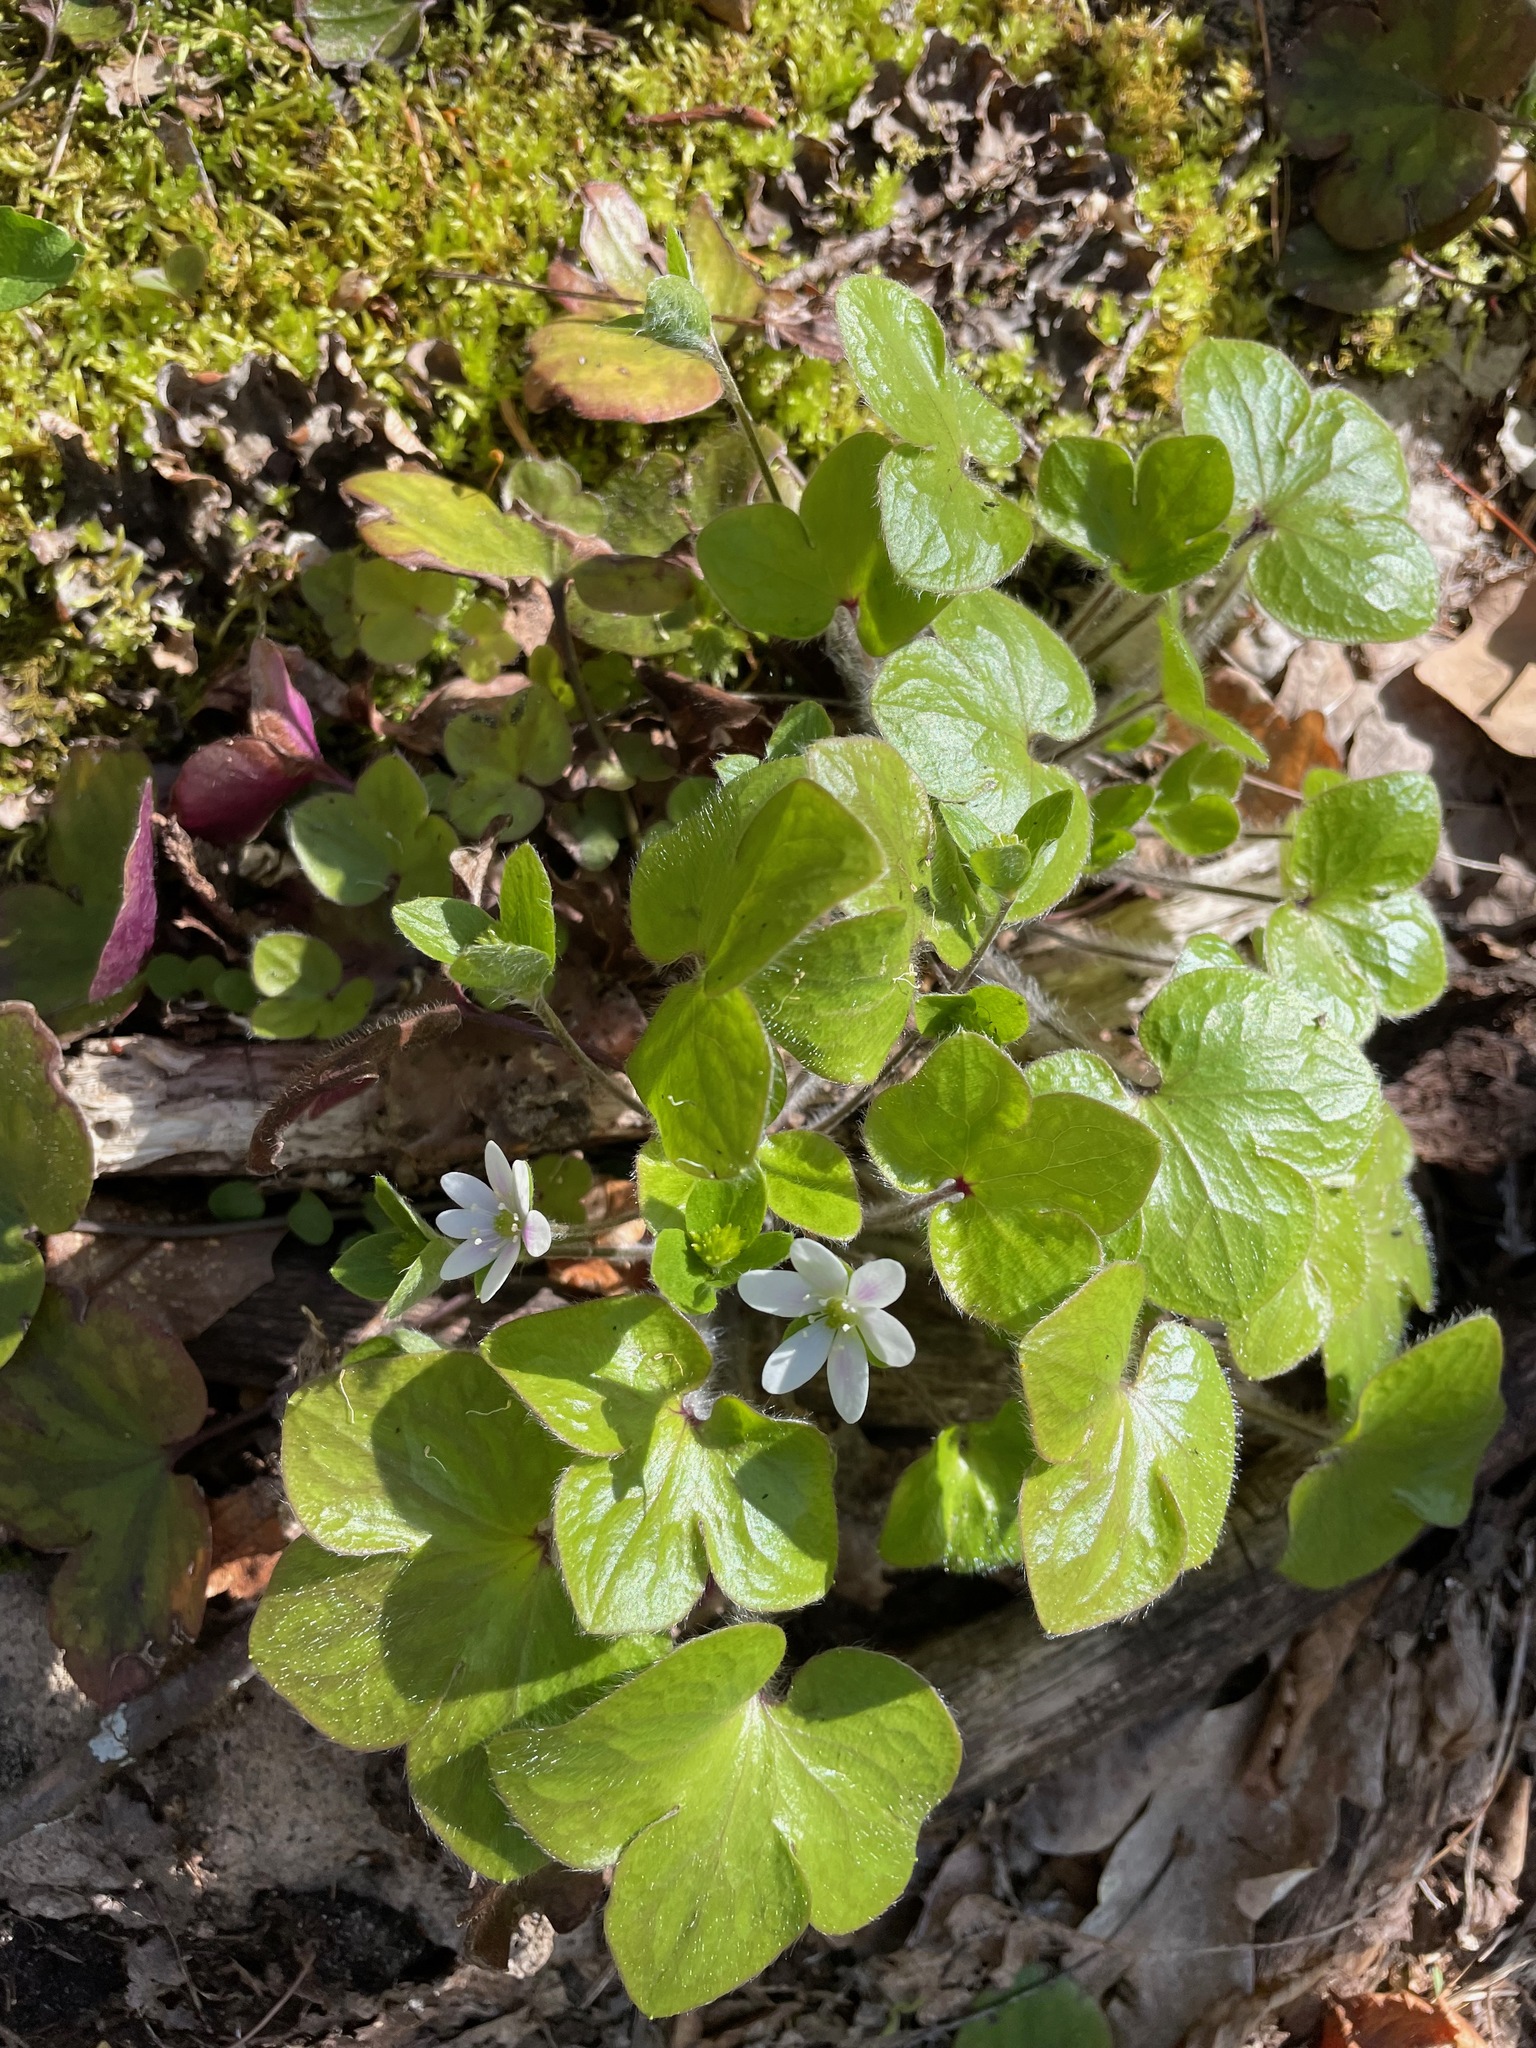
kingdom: Plantae
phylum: Tracheophyta
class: Magnoliopsida
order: Ranunculales
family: Ranunculaceae
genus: Hepatica
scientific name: Hepatica americana
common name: American hepatica
